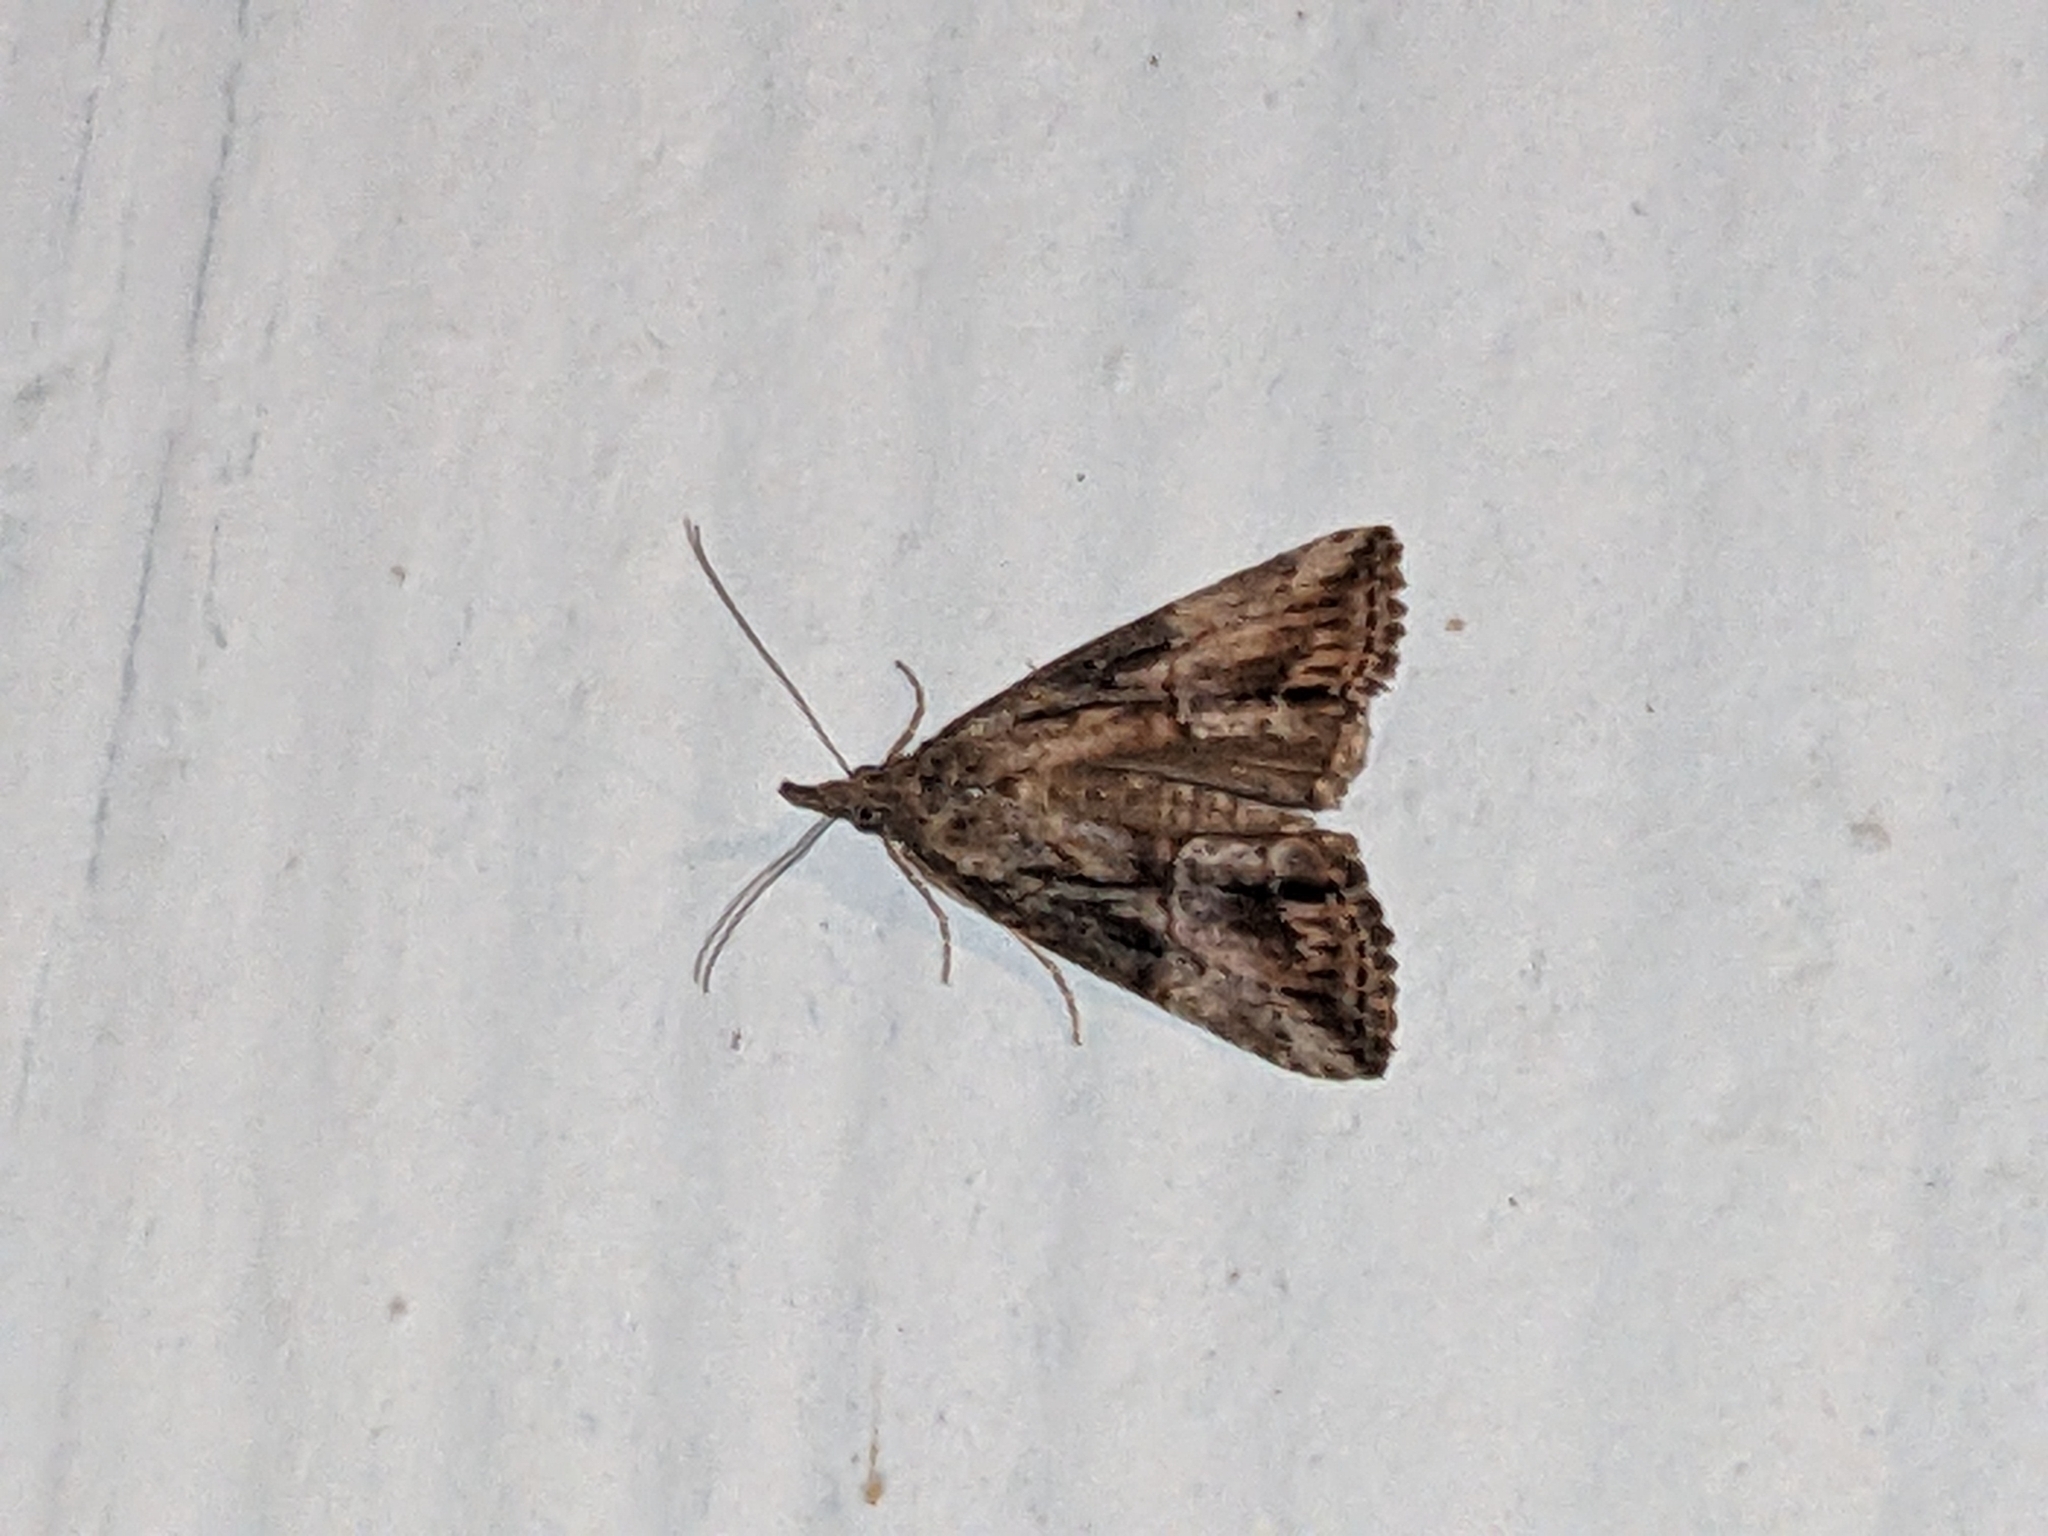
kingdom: Animalia
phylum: Arthropoda
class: Insecta
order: Lepidoptera
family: Erebidae
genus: Hypena
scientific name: Hypena scabra
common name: Green cloverworm
